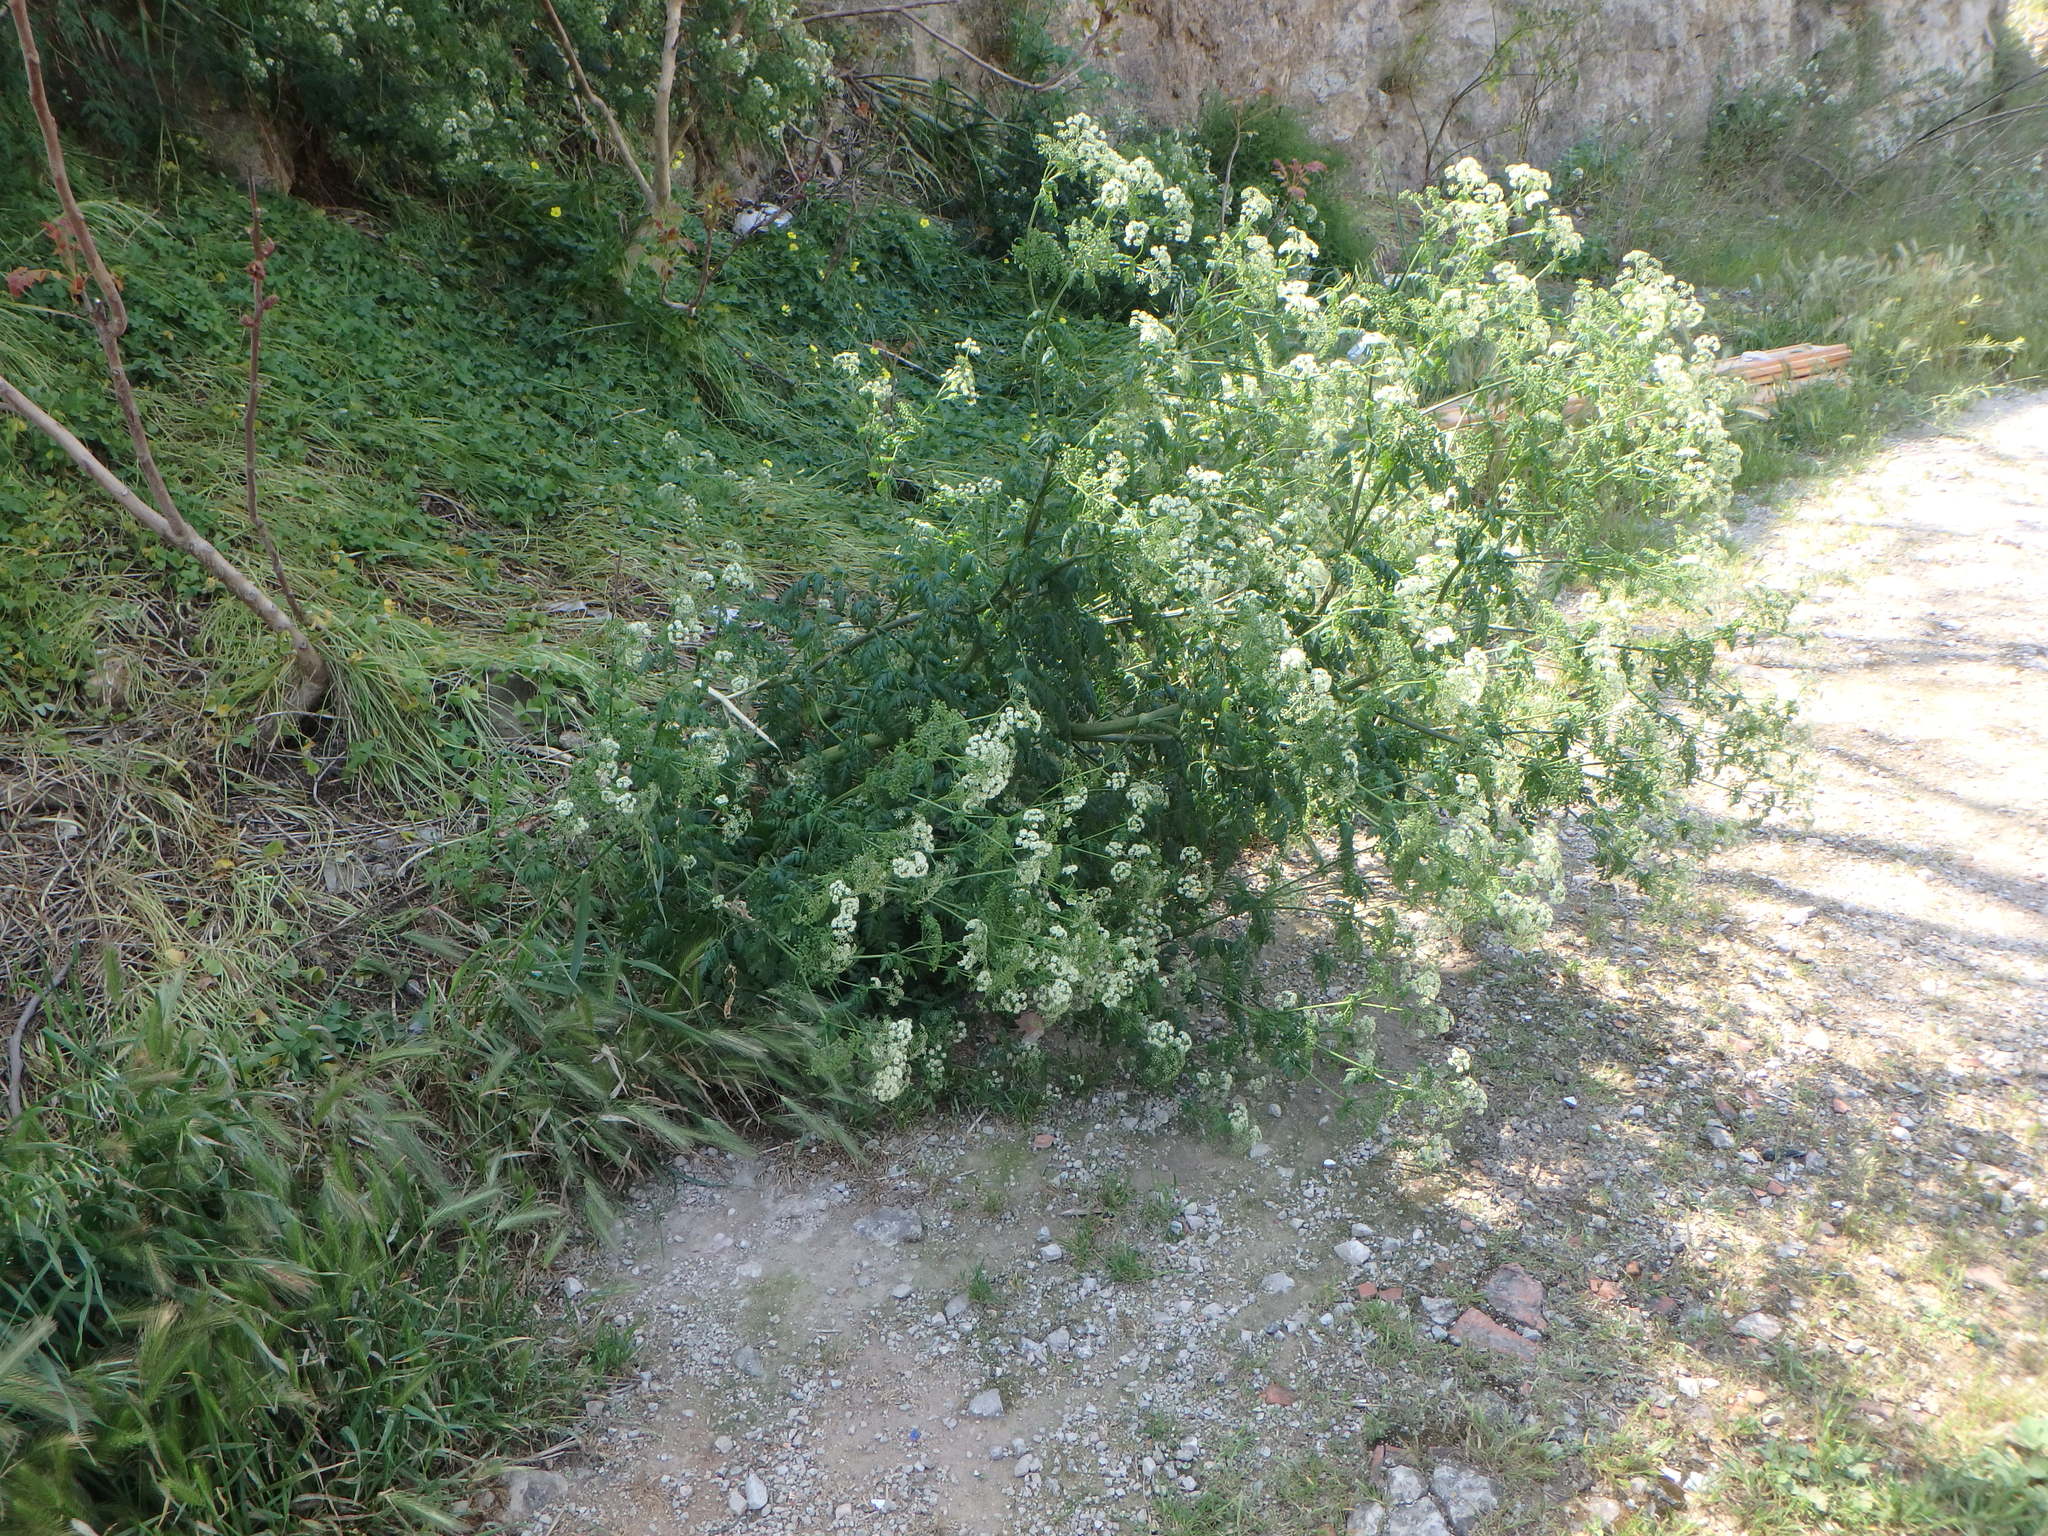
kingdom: Plantae
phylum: Tracheophyta
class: Magnoliopsida
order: Apiales
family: Apiaceae
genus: Conium
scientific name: Conium maculatum
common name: Hemlock
